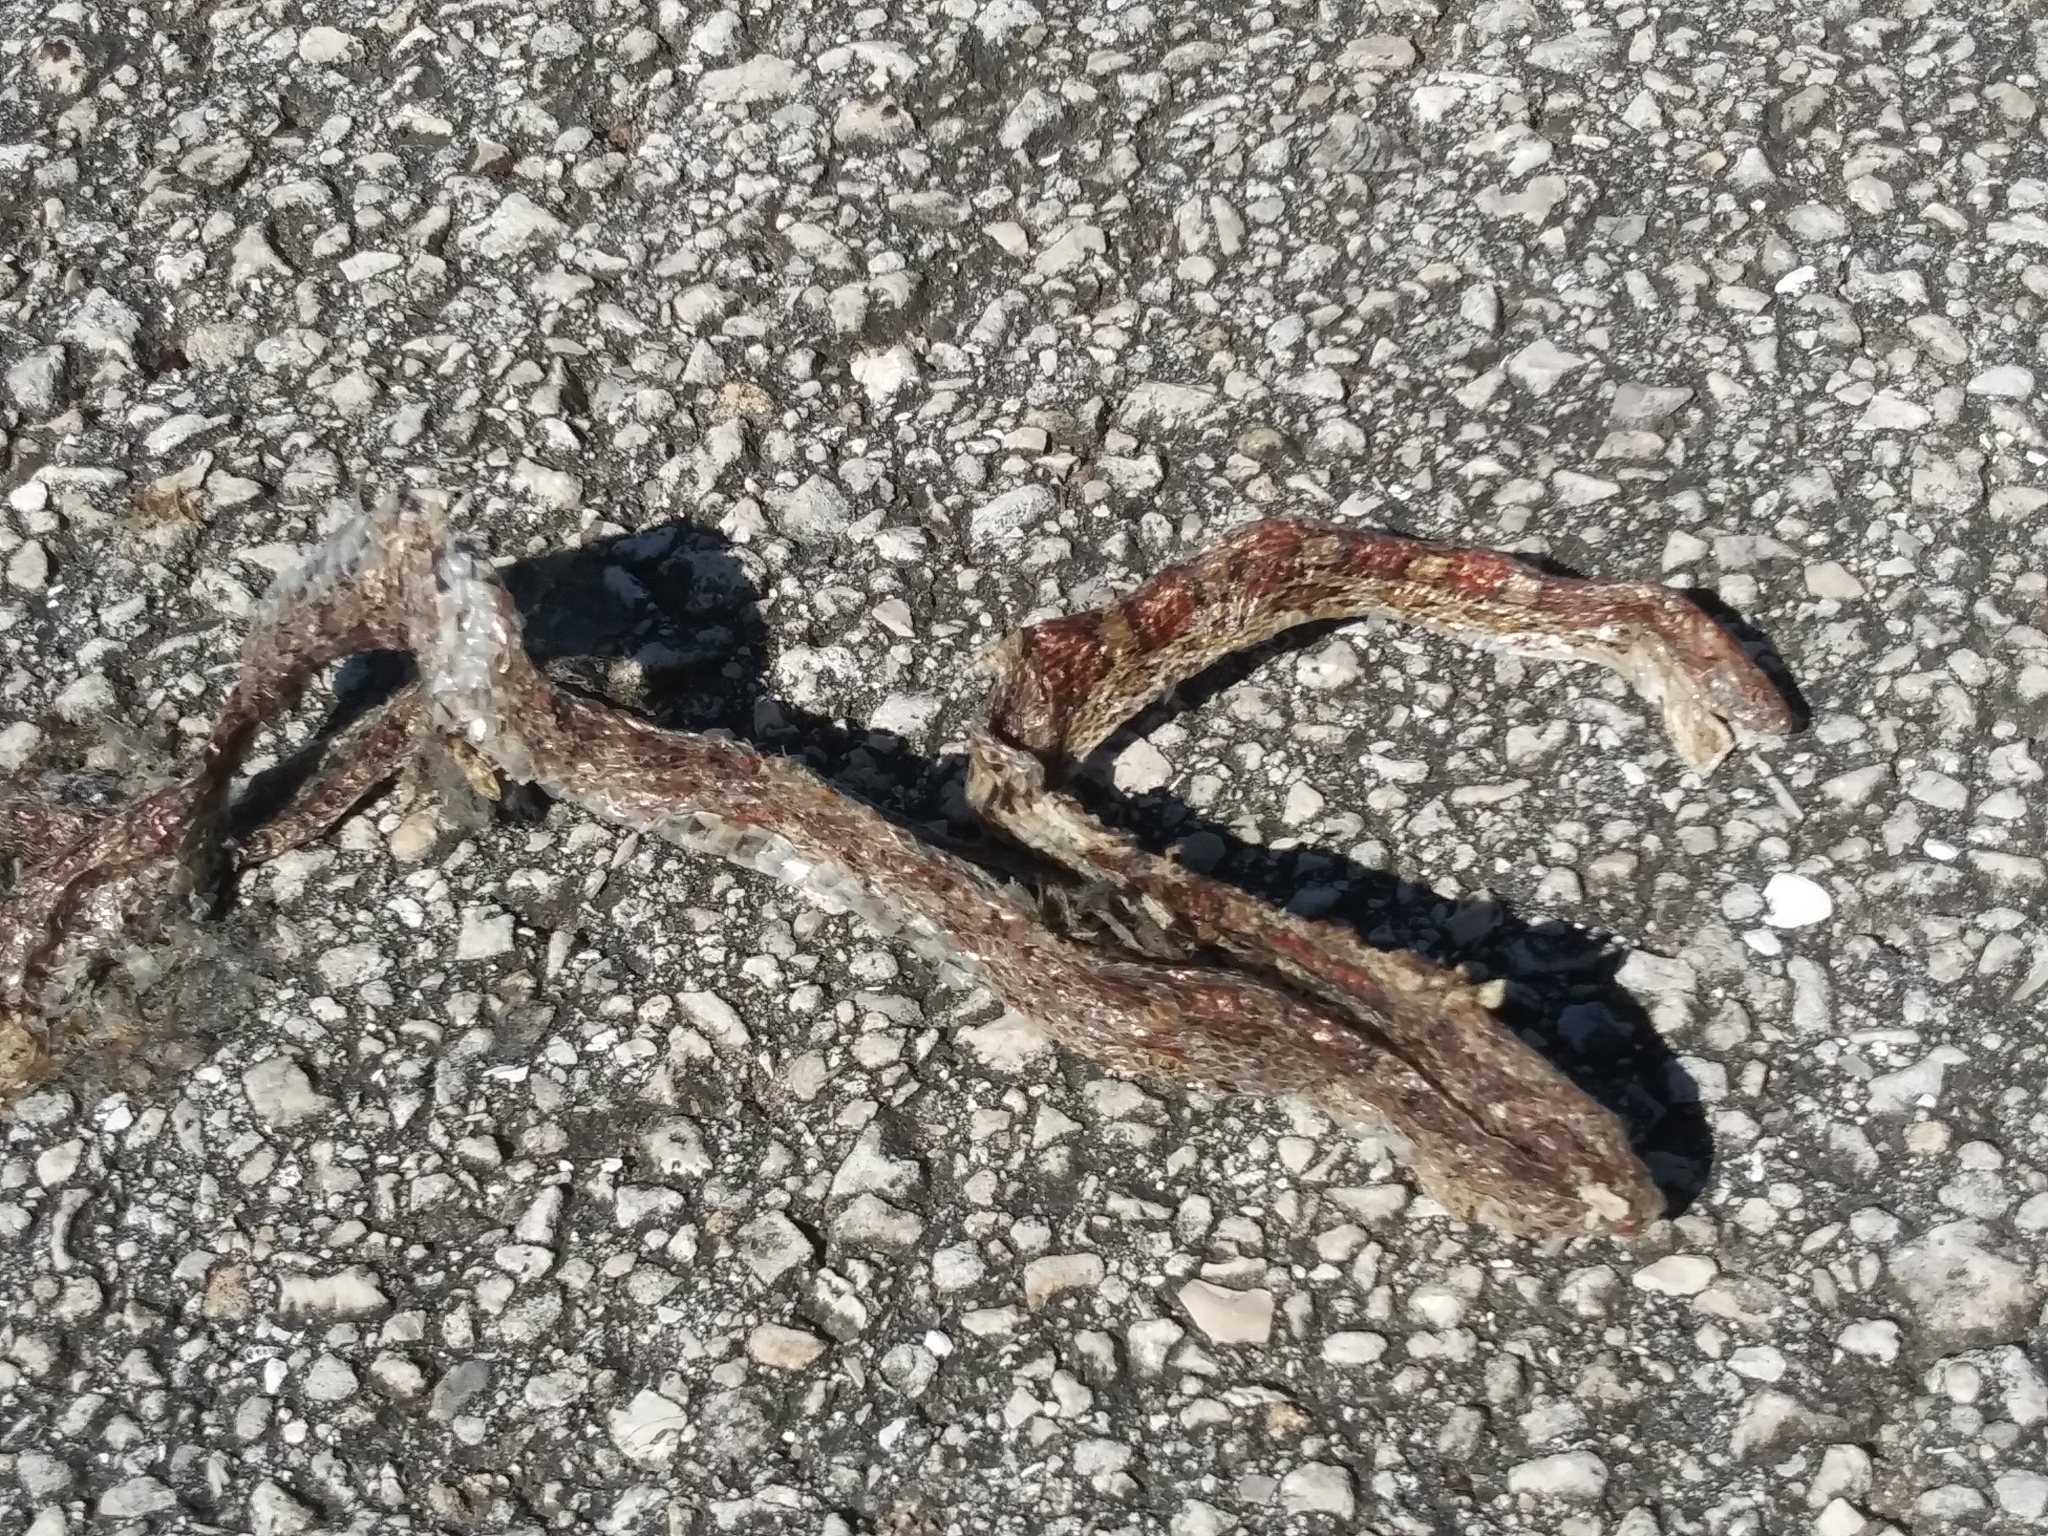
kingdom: Animalia
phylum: Chordata
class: Squamata
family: Colubridae
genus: Pantherophis
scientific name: Pantherophis guttatus
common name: Red cornsnake
